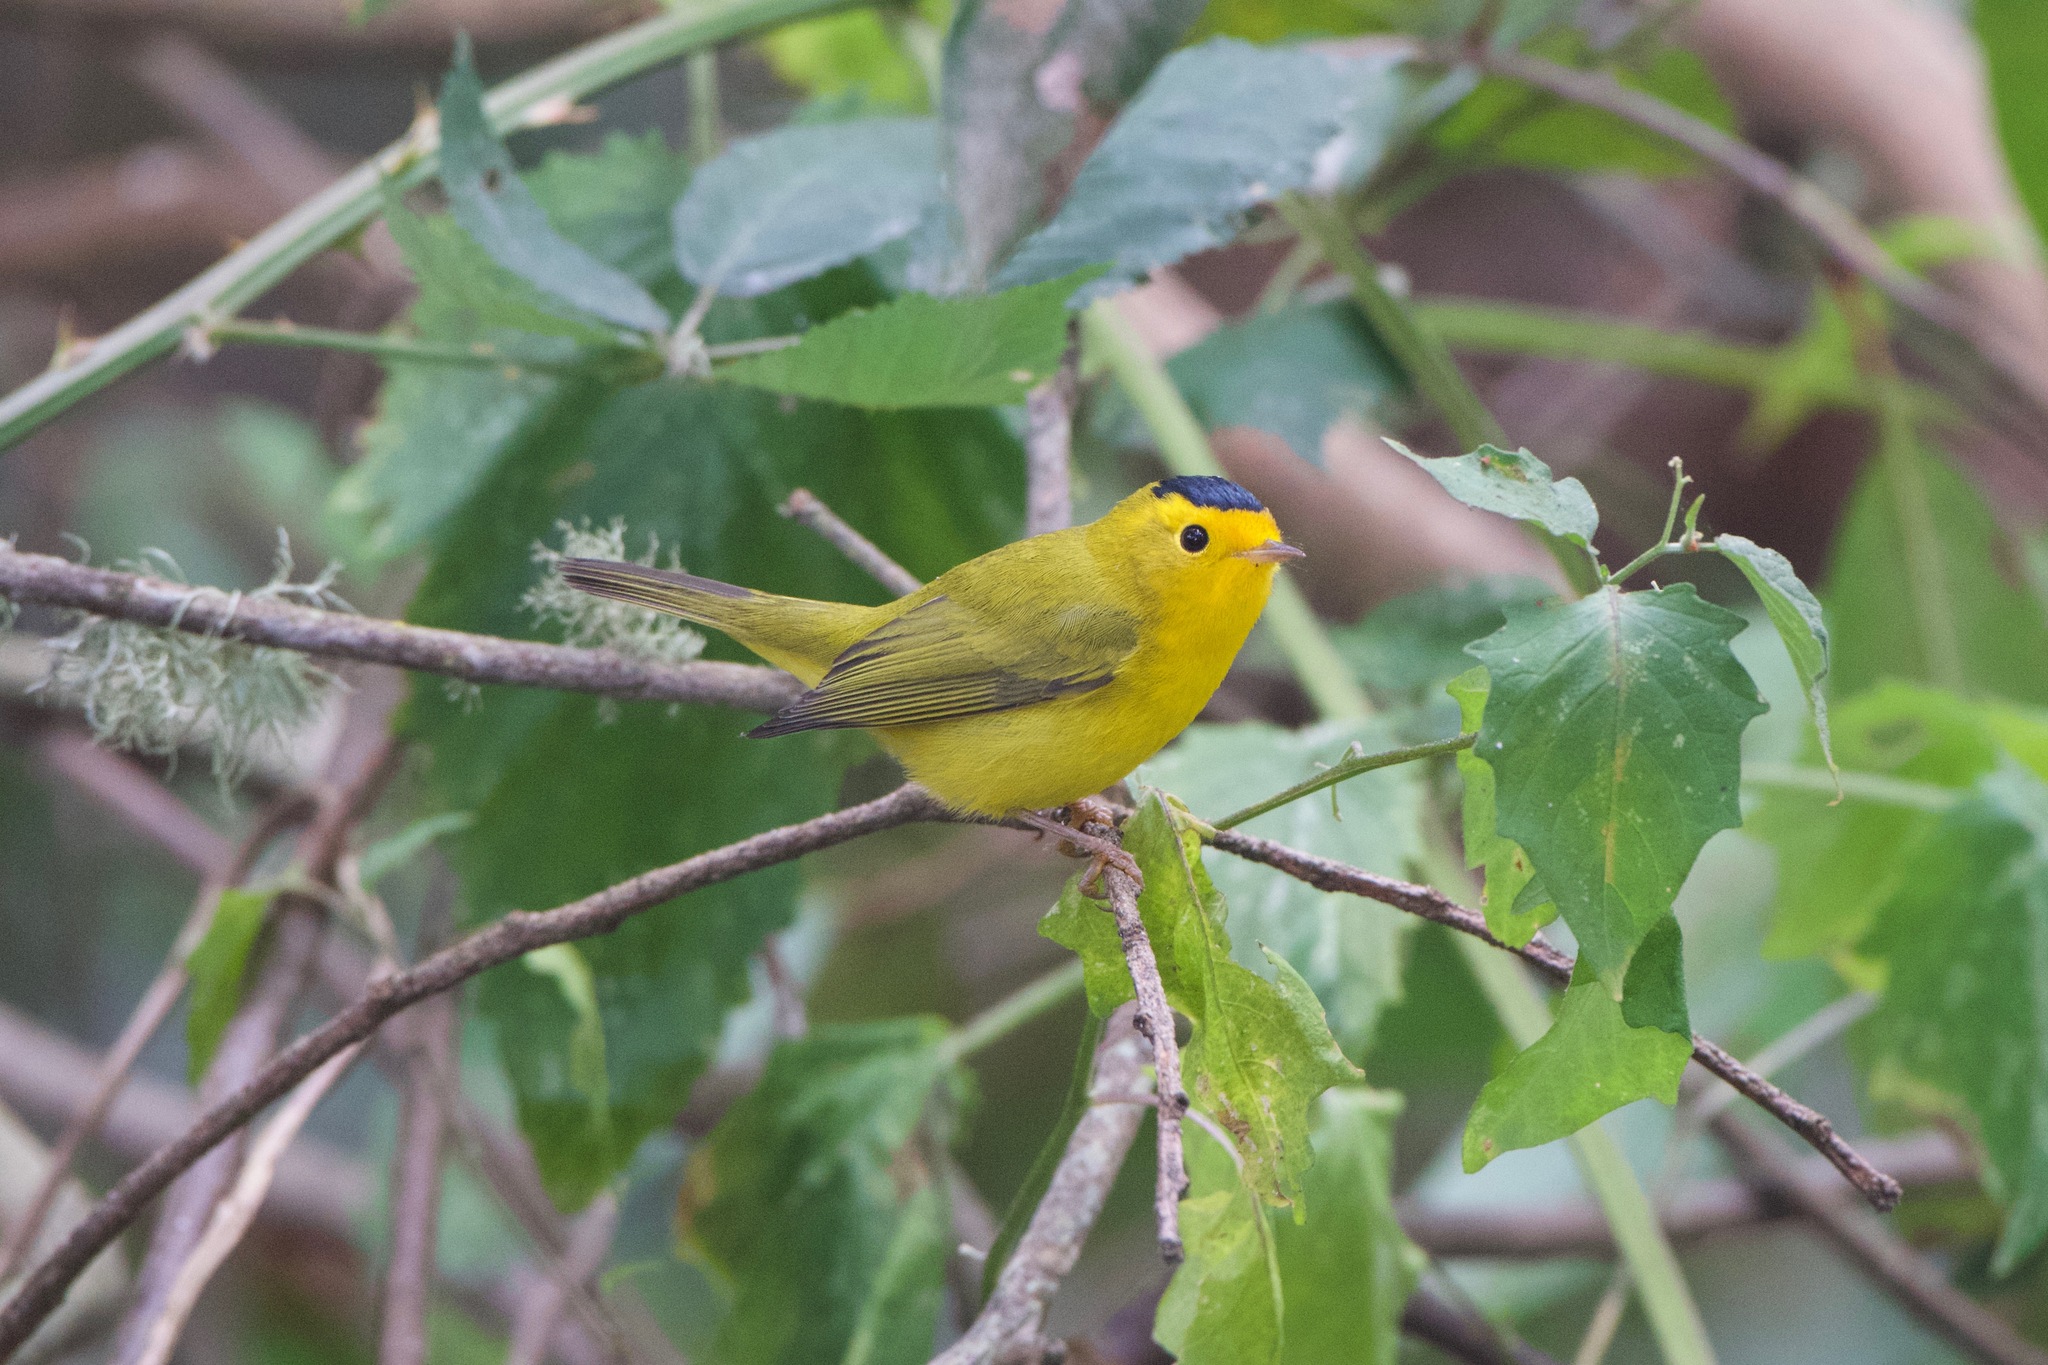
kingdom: Animalia
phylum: Chordata
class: Aves
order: Passeriformes
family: Parulidae
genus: Cardellina
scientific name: Cardellina pusilla
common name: Wilson's warbler
